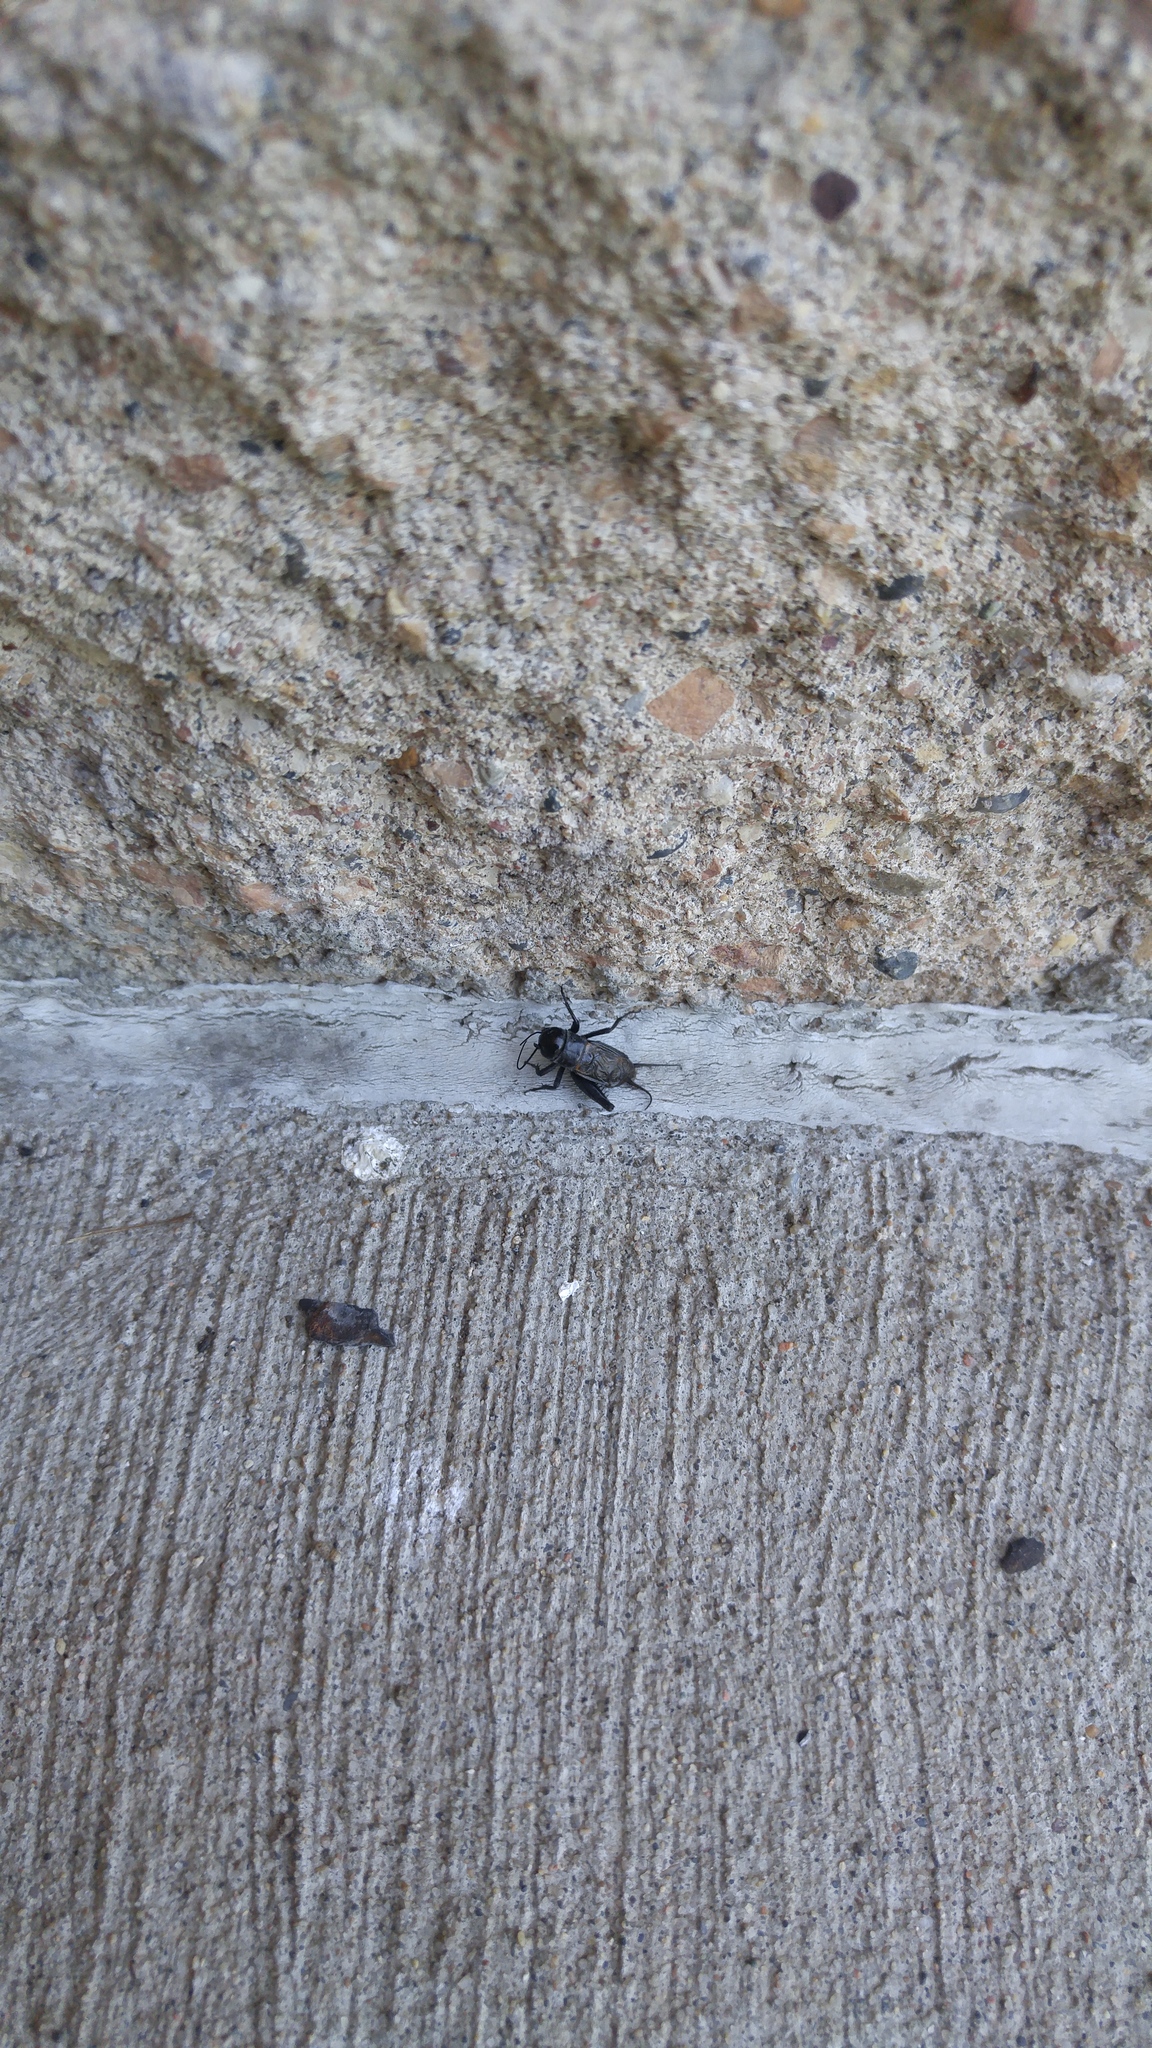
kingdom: Animalia
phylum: Arthropoda
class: Insecta
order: Orthoptera
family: Gryllidae
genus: Gryllus
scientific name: Gryllus veletis
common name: Spring field cricket
